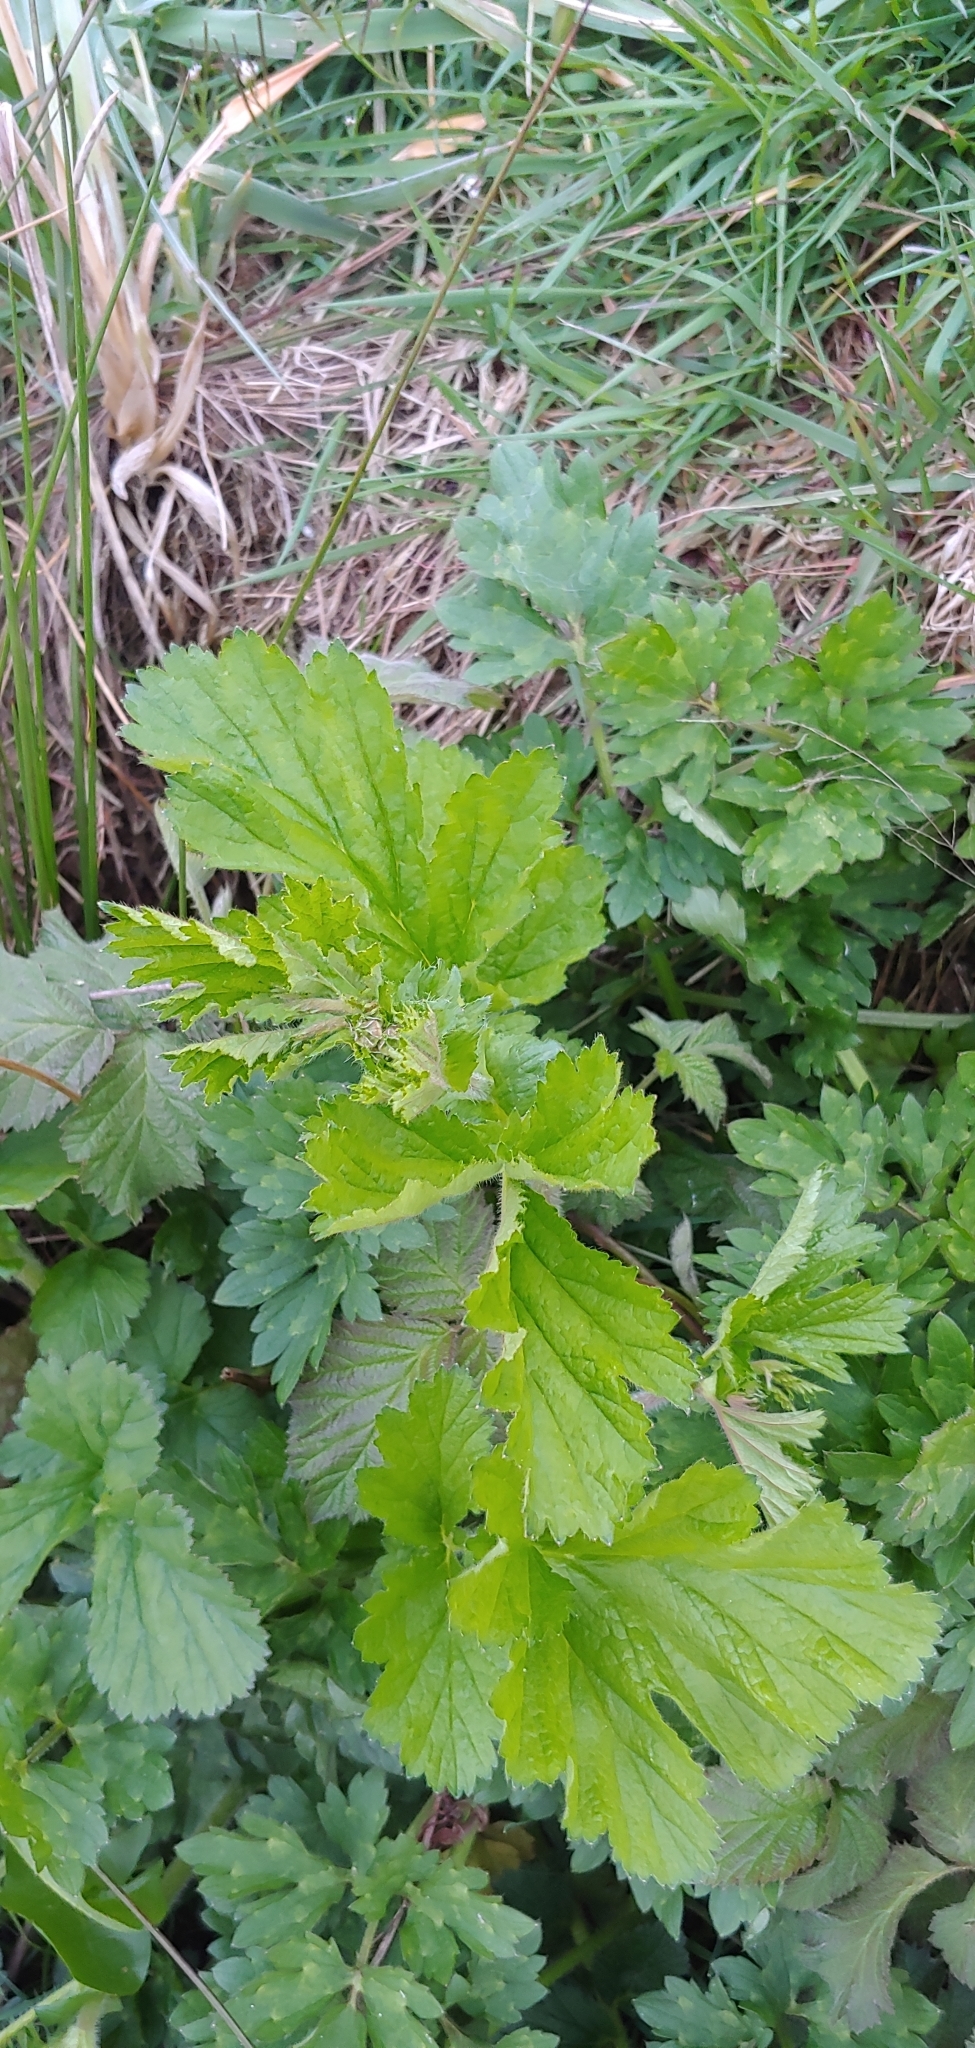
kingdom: Plantae
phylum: Tracheophyta
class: Magnoliopsida
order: Rosales
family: Rosaceae
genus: Geum
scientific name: Geum macrophyllum
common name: Large-leaved avens
